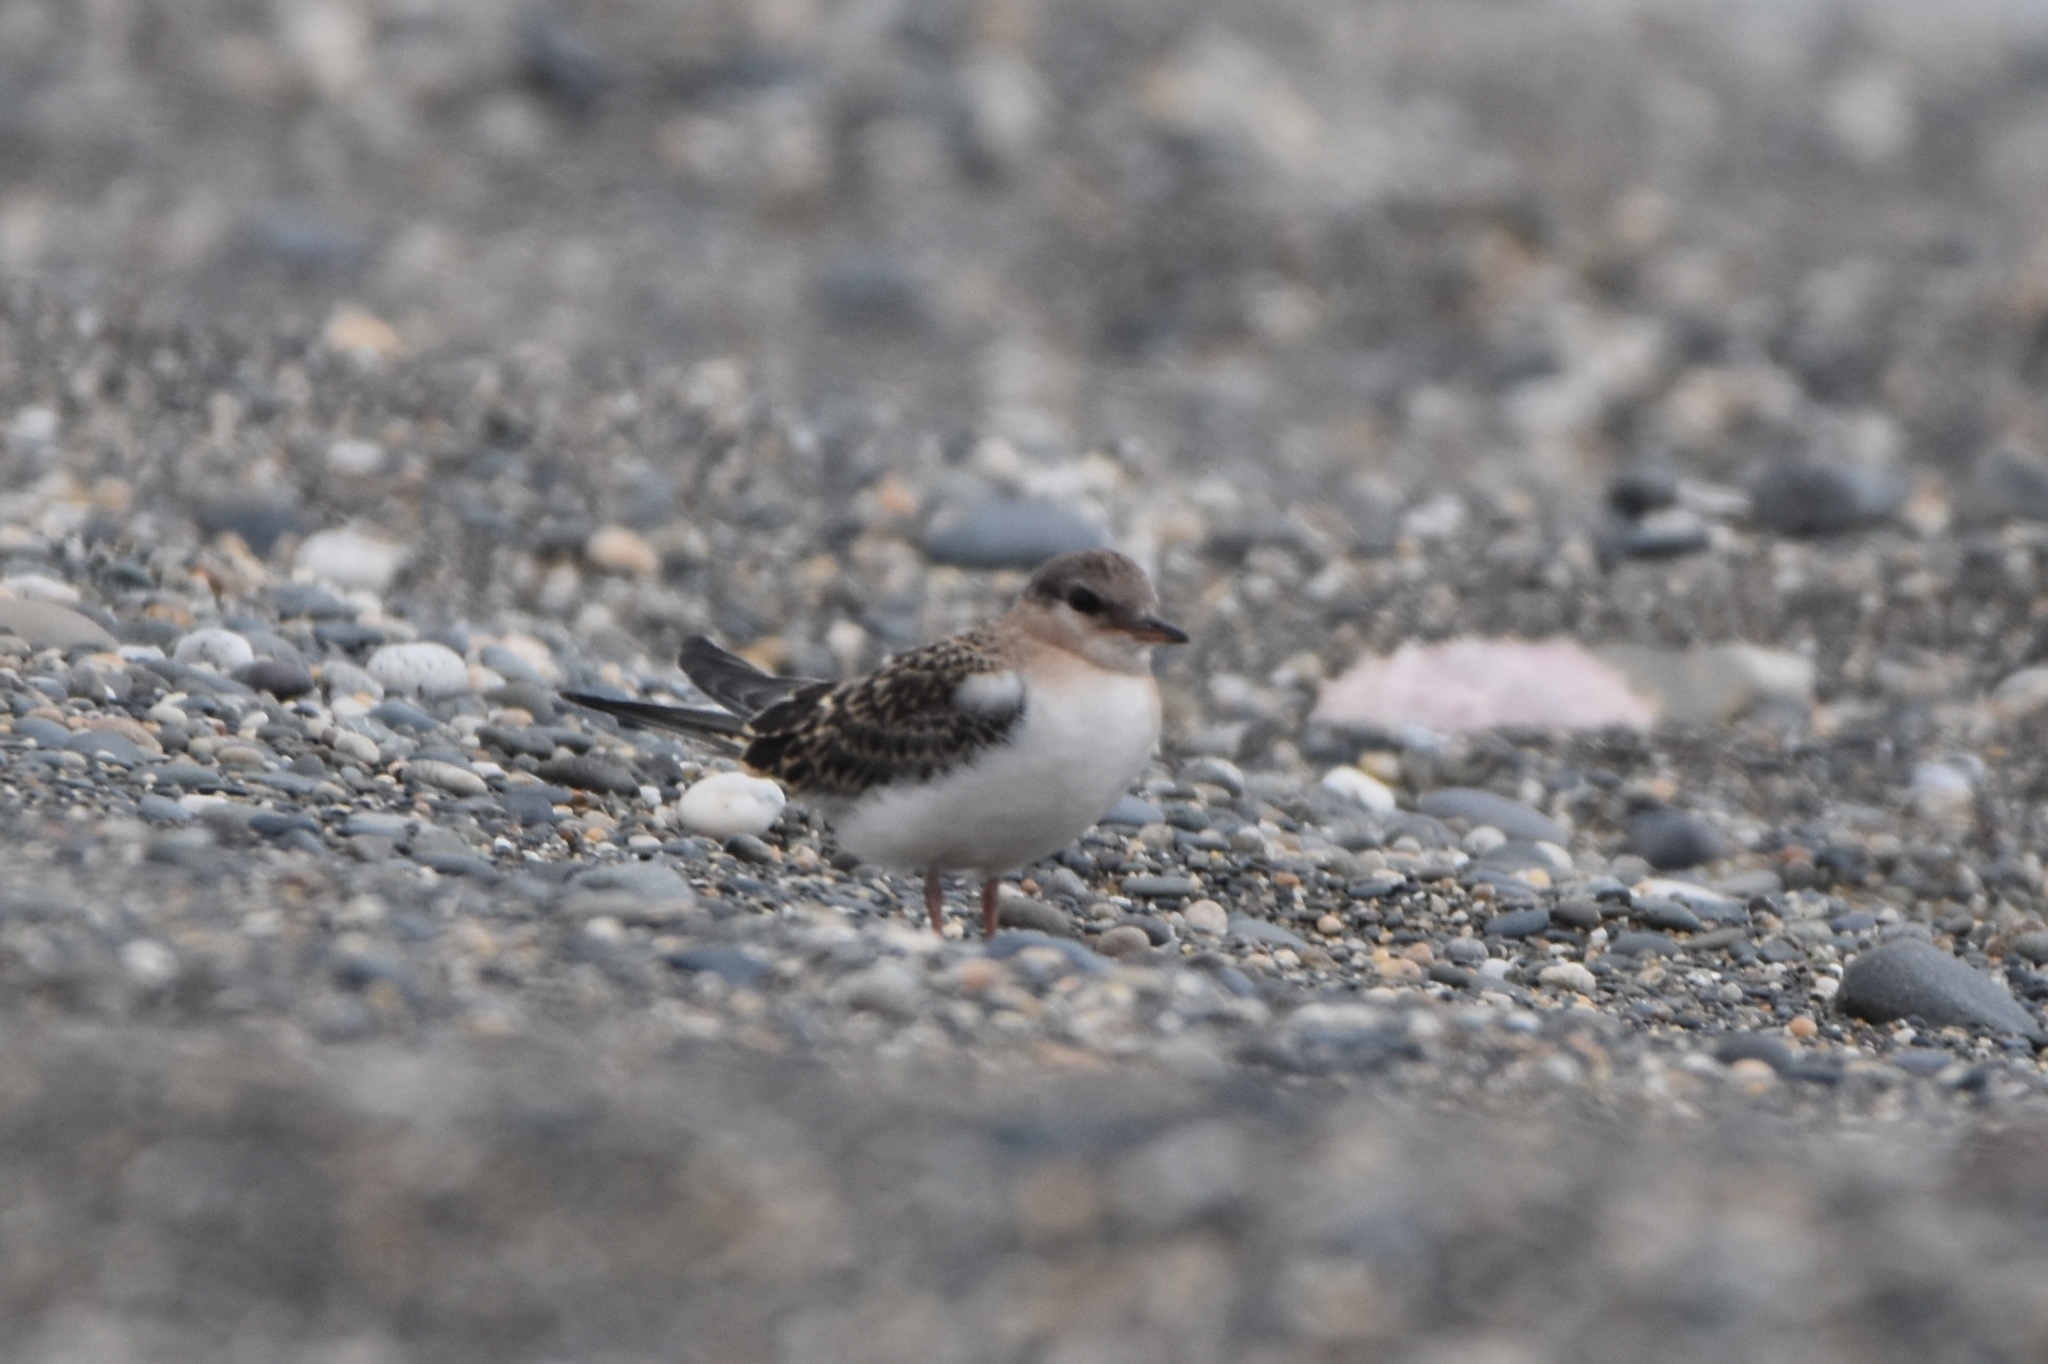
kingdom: Animalia
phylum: Chordata
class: Aves
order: Charadriiformes
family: Laridae
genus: Onychoprion
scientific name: Onychoprion aleuticus
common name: Aleutian tern
